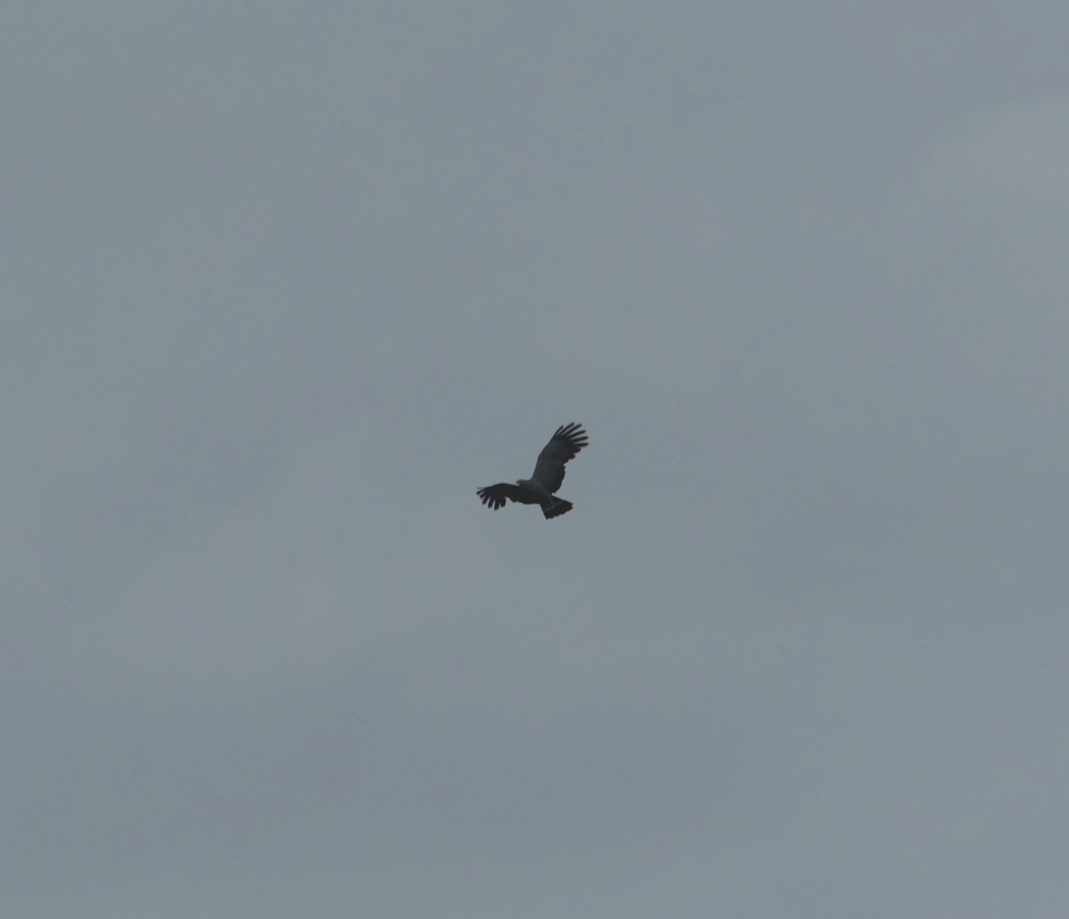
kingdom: Animalia
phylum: Chordata
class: Aves
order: Accipitriformes
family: Accipitridae
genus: Polyboroides
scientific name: Polyboroides typus
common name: African harrier-hawk
